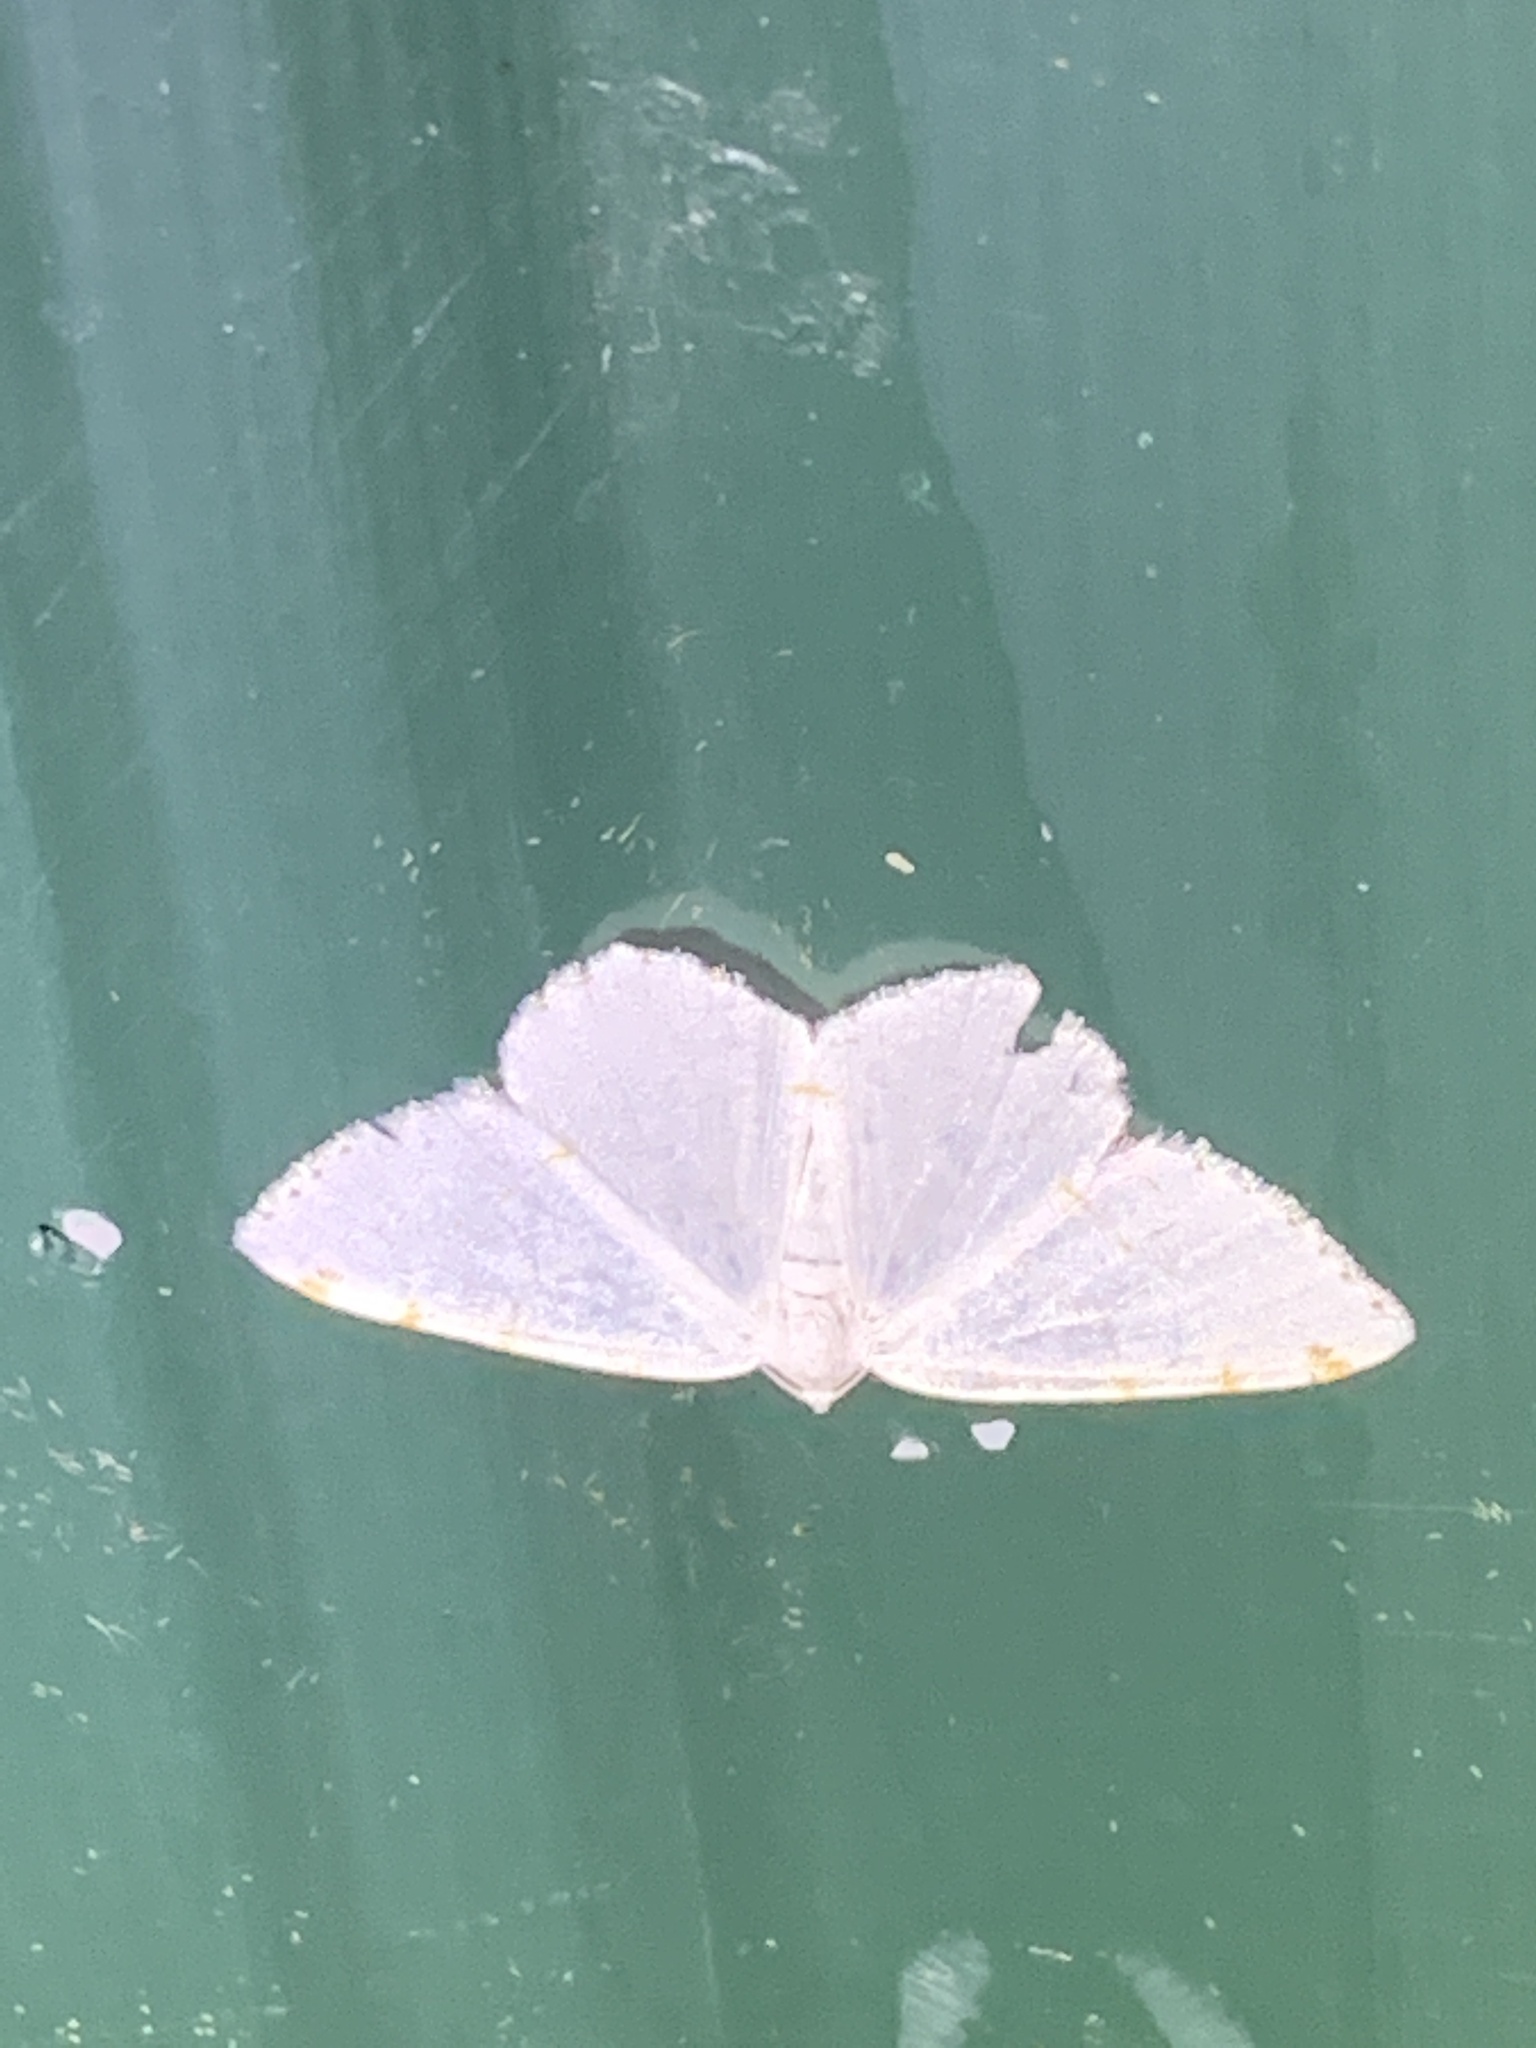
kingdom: Animalia
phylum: Arthropoda
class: Insecta
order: Lepidoptera
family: Geometridae
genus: Macaria
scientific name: Macaria pustularia
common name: Lesser maple spanworm moth
